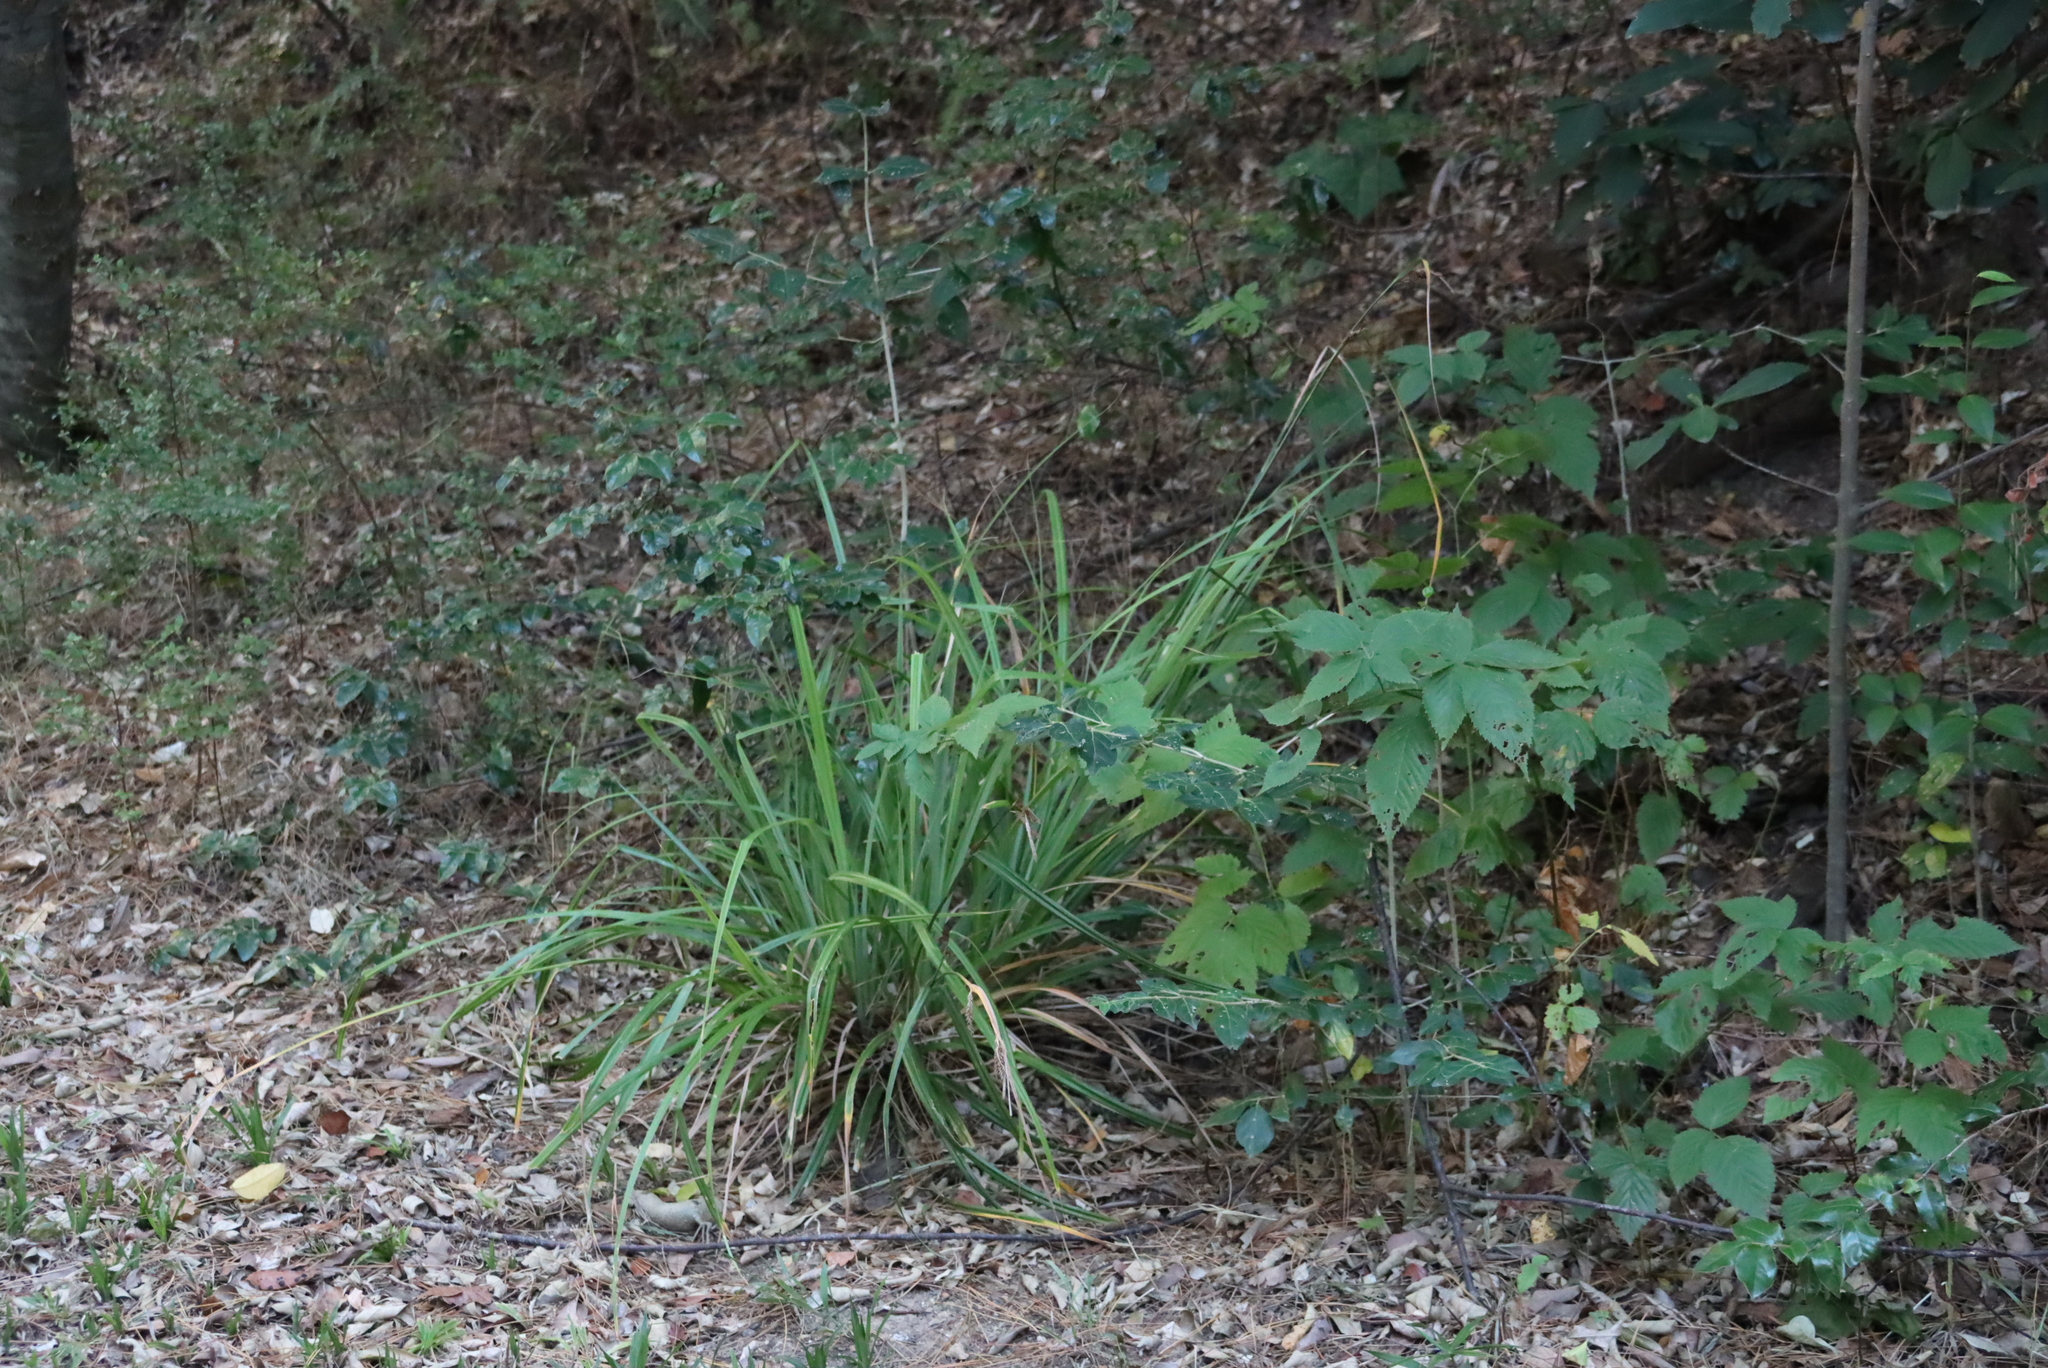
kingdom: Plantae
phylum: Tracheophyta
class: Liliopsida
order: Poales
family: Cyperaceae
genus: Carex
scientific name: Carex lancea
